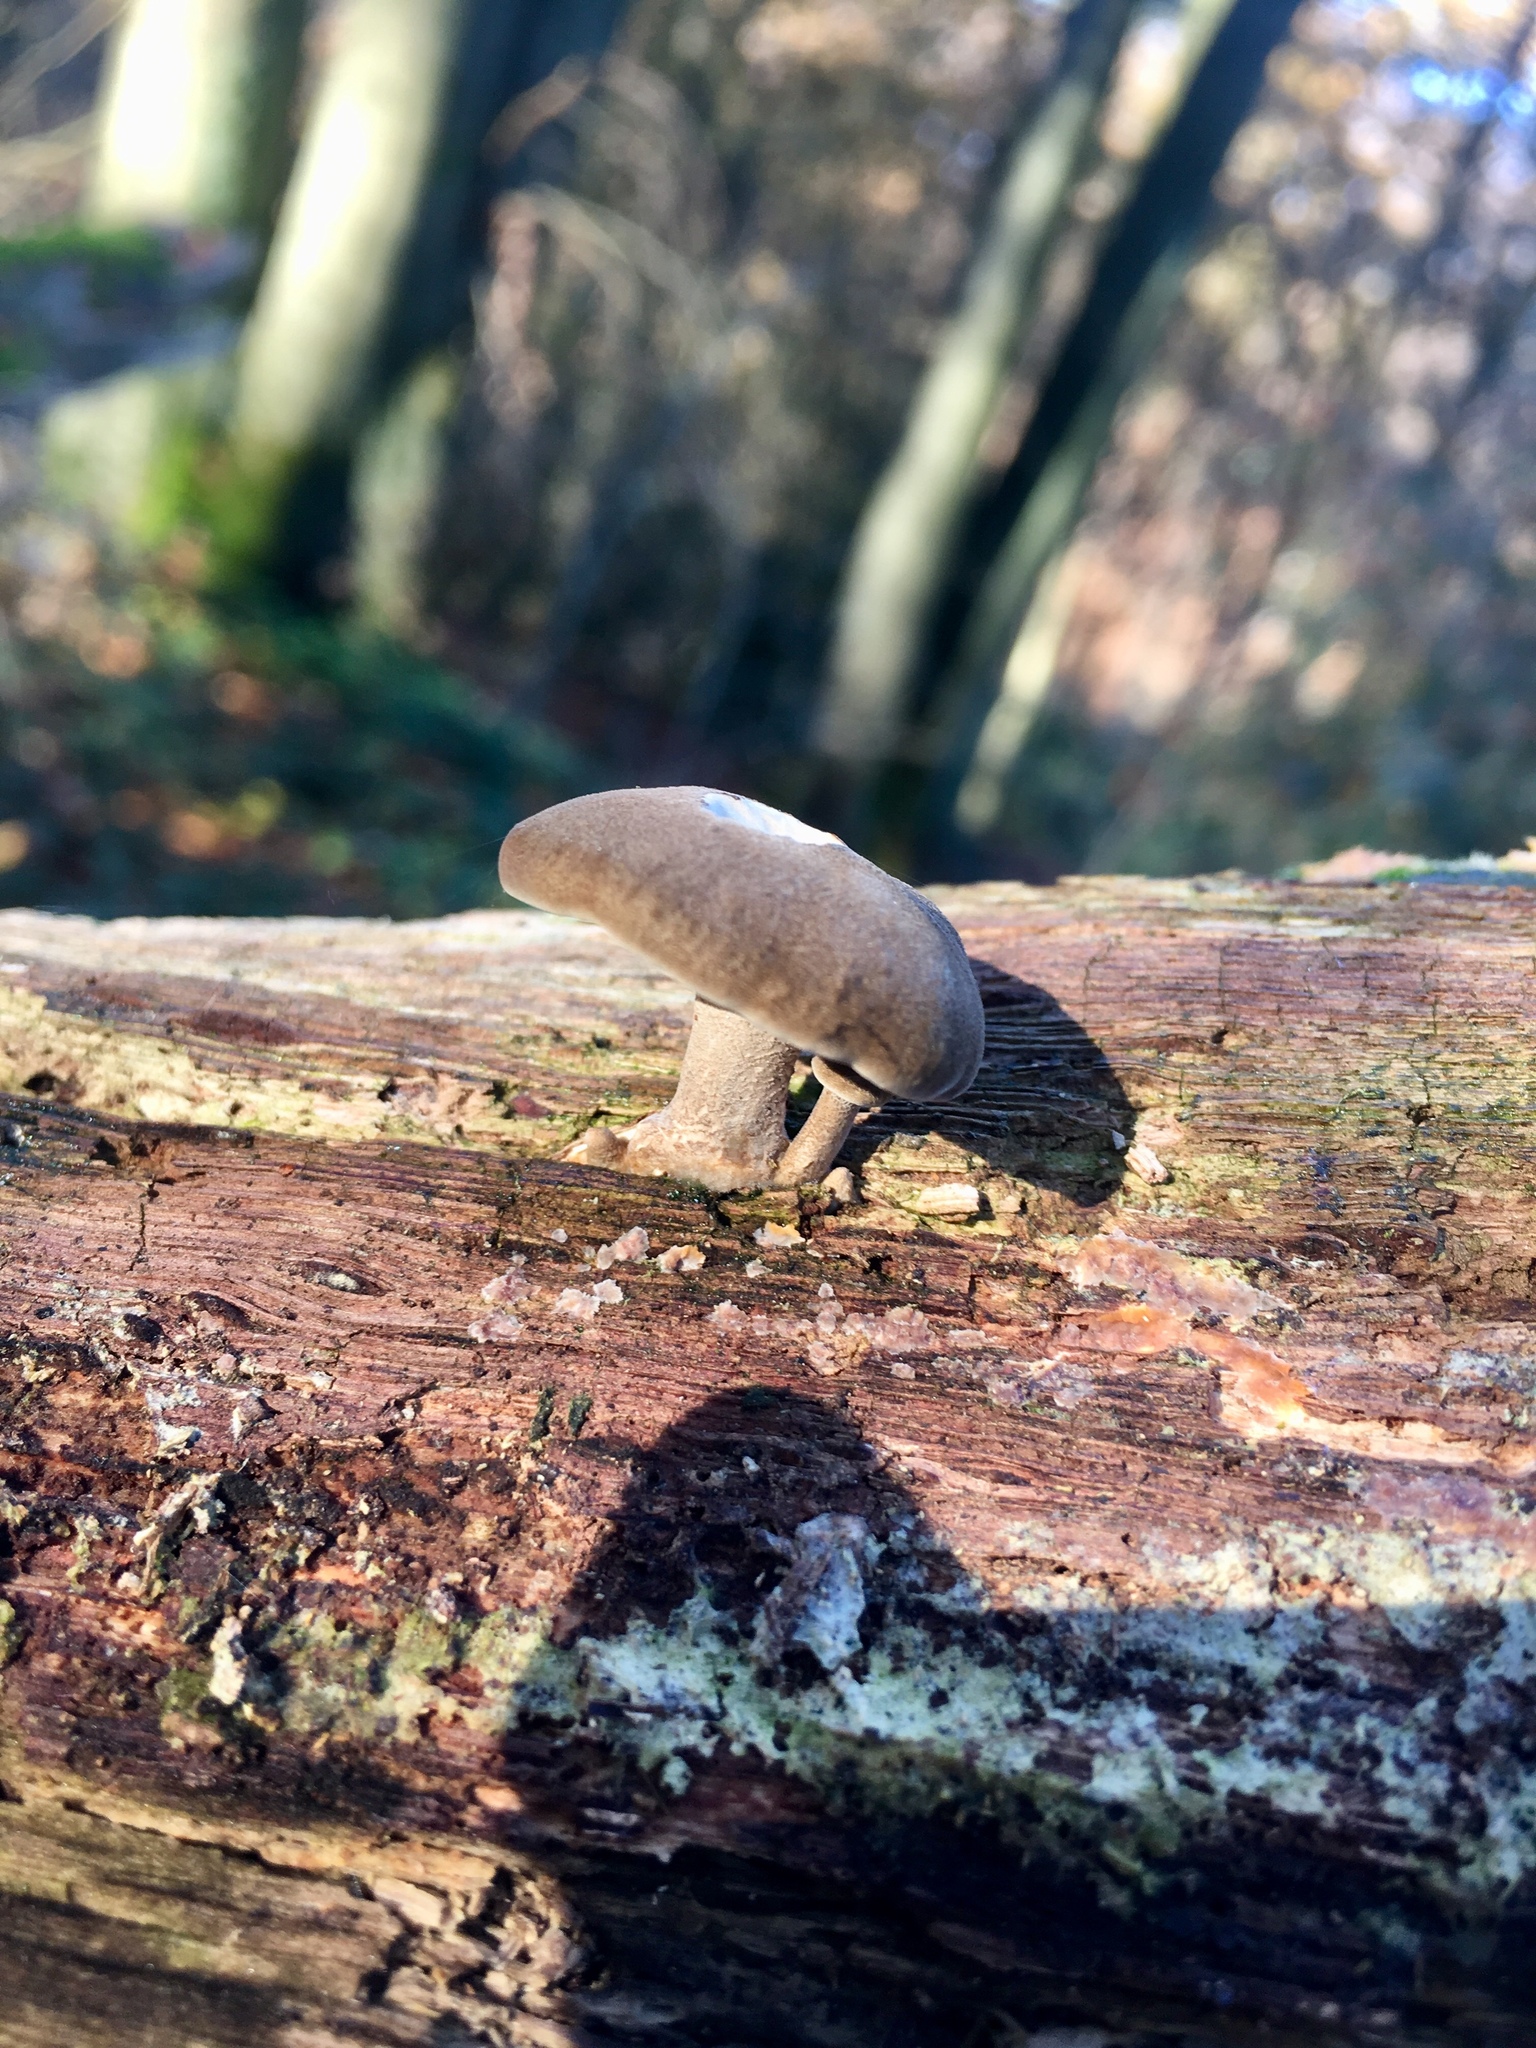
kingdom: Fungi
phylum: Basidiomycota
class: Agaricomycetes
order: Polyporales
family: Polyporaceae
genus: Lentinus
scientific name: Lentinus brumalis
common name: Winter polypore
